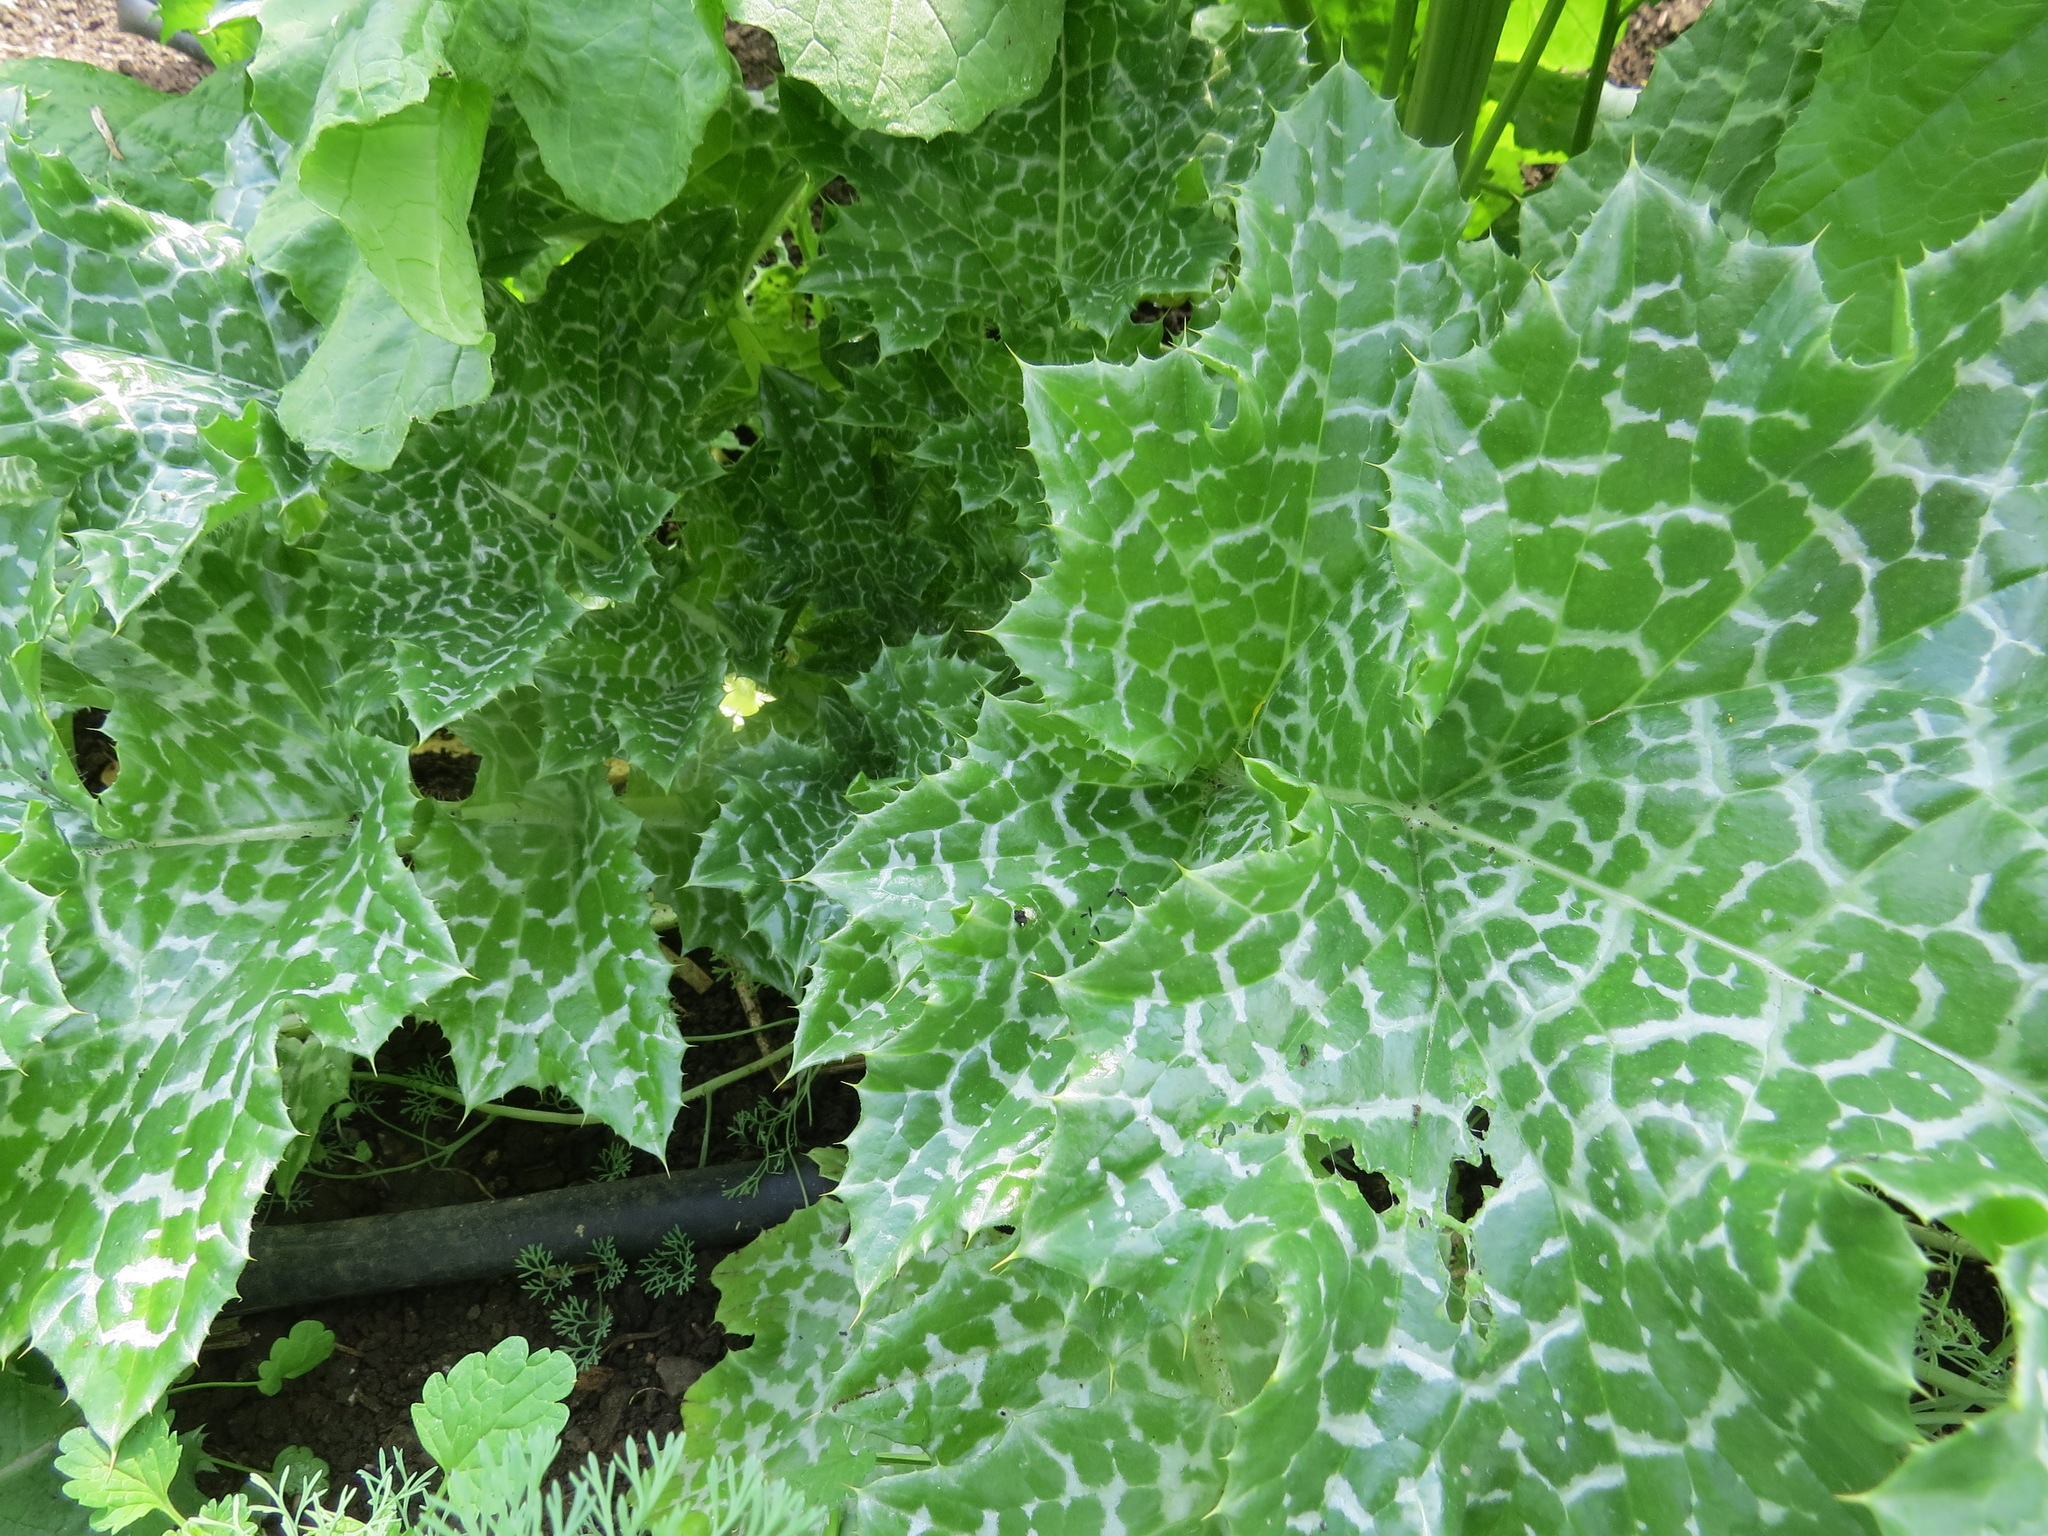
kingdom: Plantae
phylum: Tracheophyta
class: Magnoliopsida
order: Asterales
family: Asteraceae
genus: Silybum
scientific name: Silybum marianum
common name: Milk thistle
